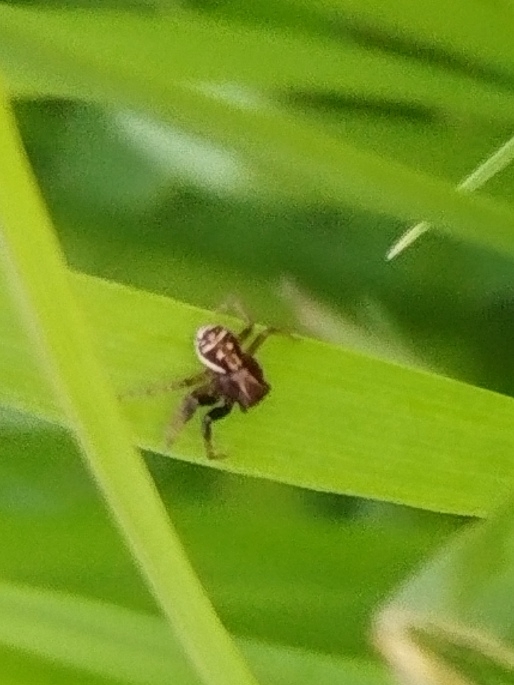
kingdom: Animalia
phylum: Arthropoda
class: Arachnida
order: Araneae
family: Thomisidae
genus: Xysticus
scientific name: Xysticus ulmi
